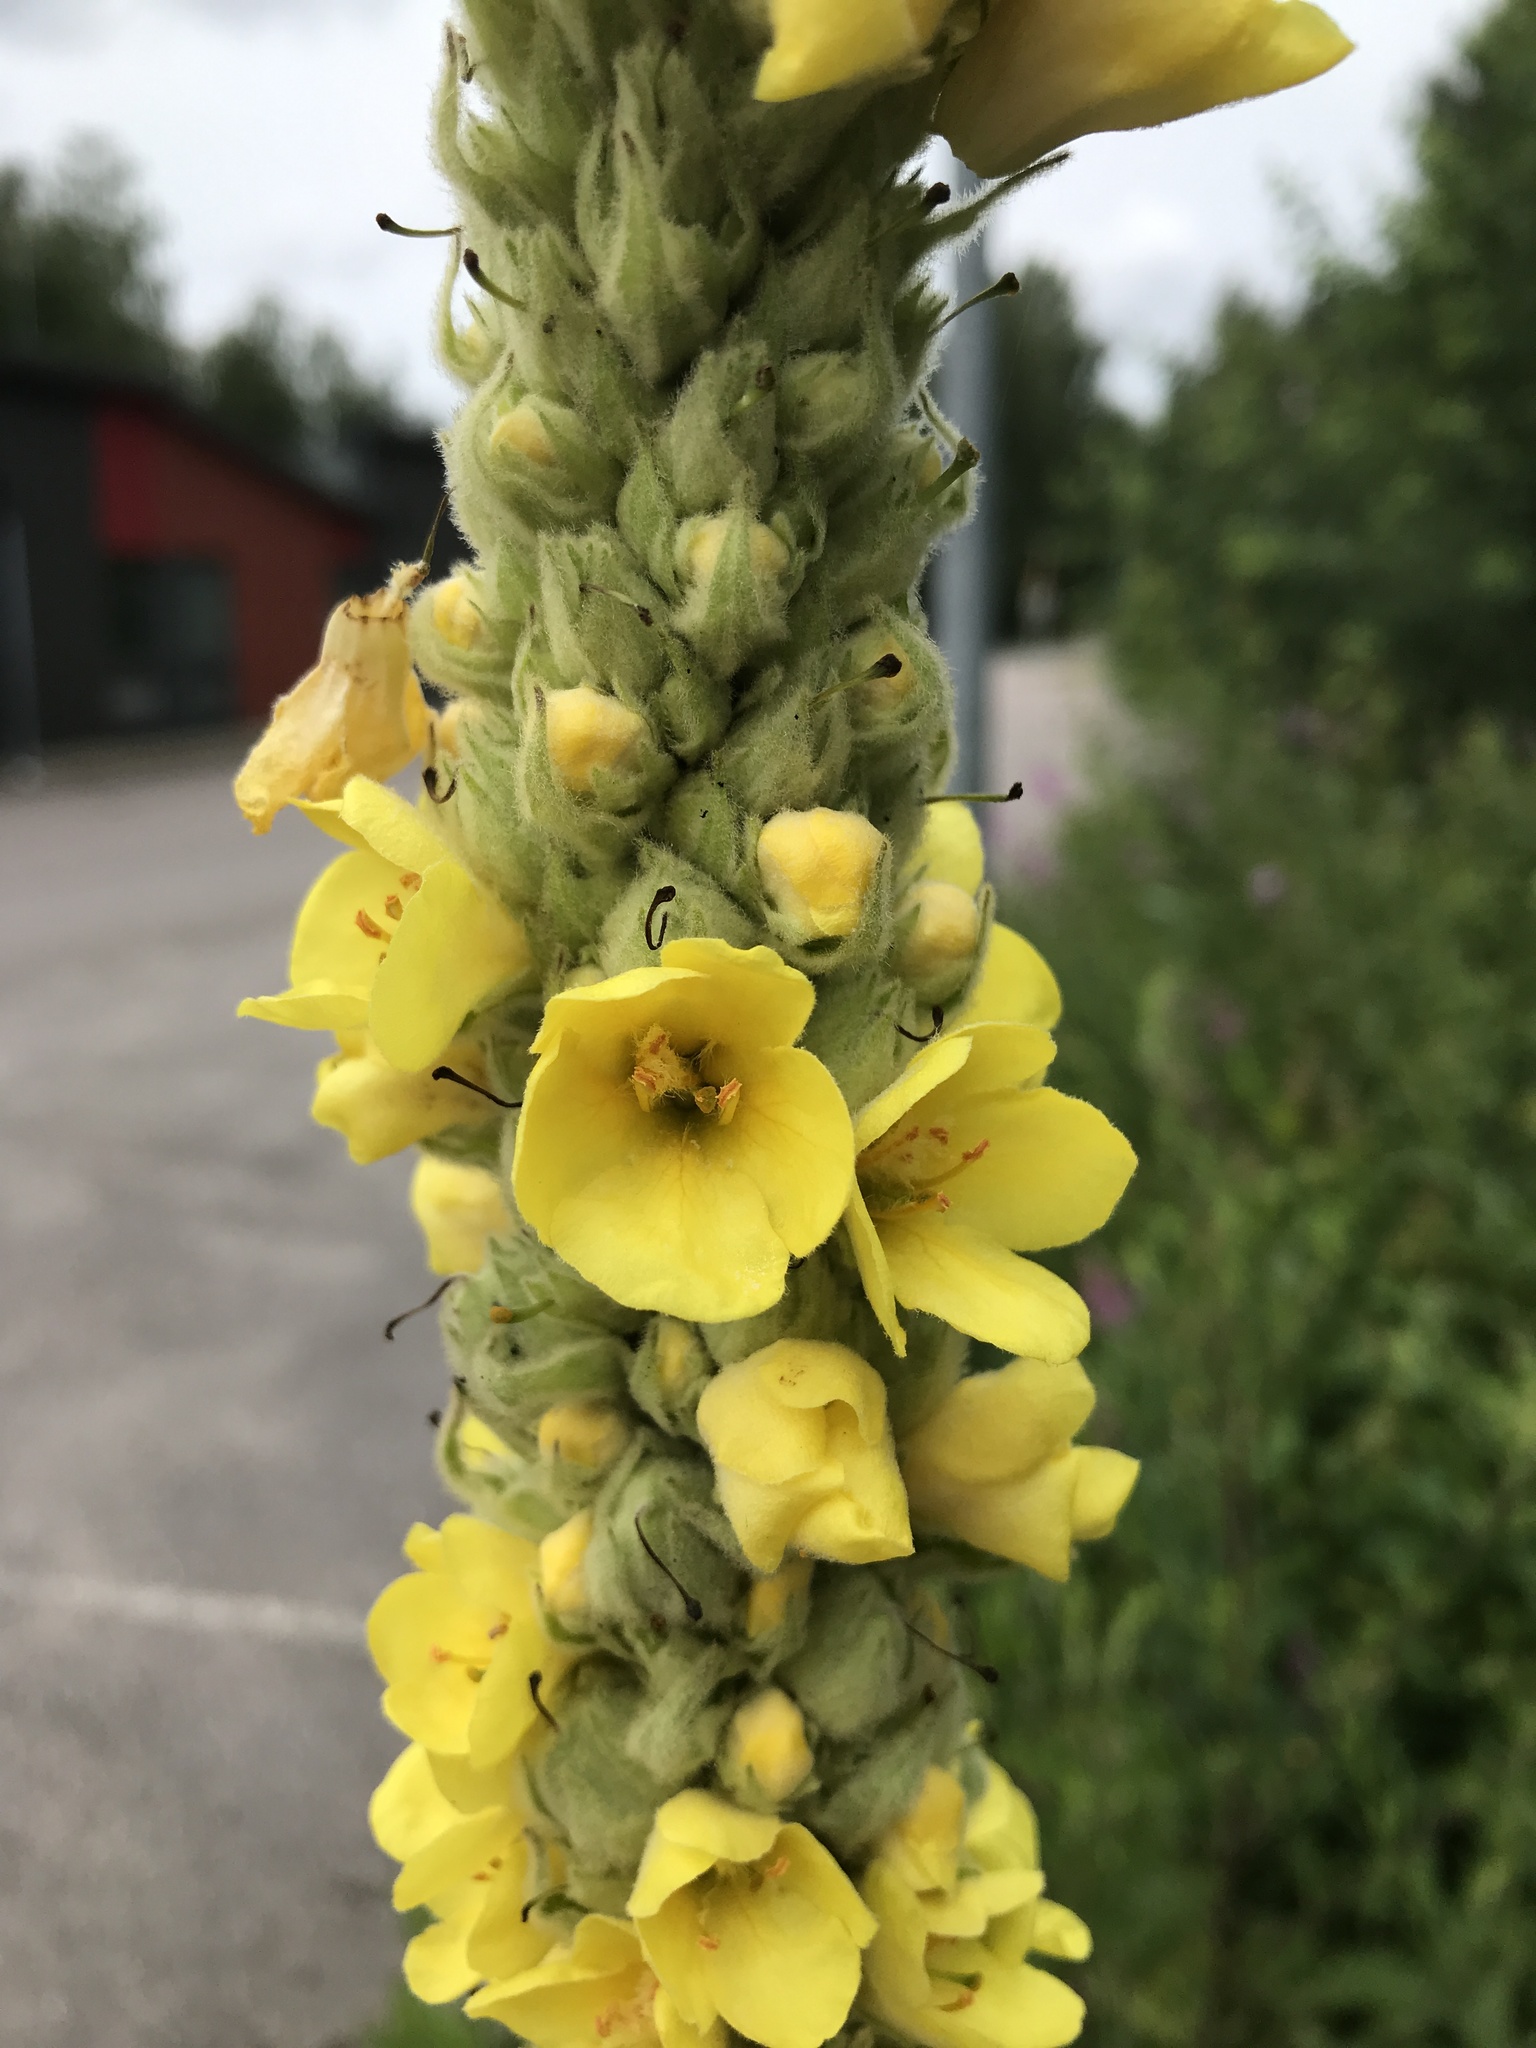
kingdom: Plantae
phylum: Tracheophyta
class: Magnoliopsida
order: Lamiales
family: Scrophulariaceae
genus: Verbascum
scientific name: Verbascum thapsus
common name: Common mullein
